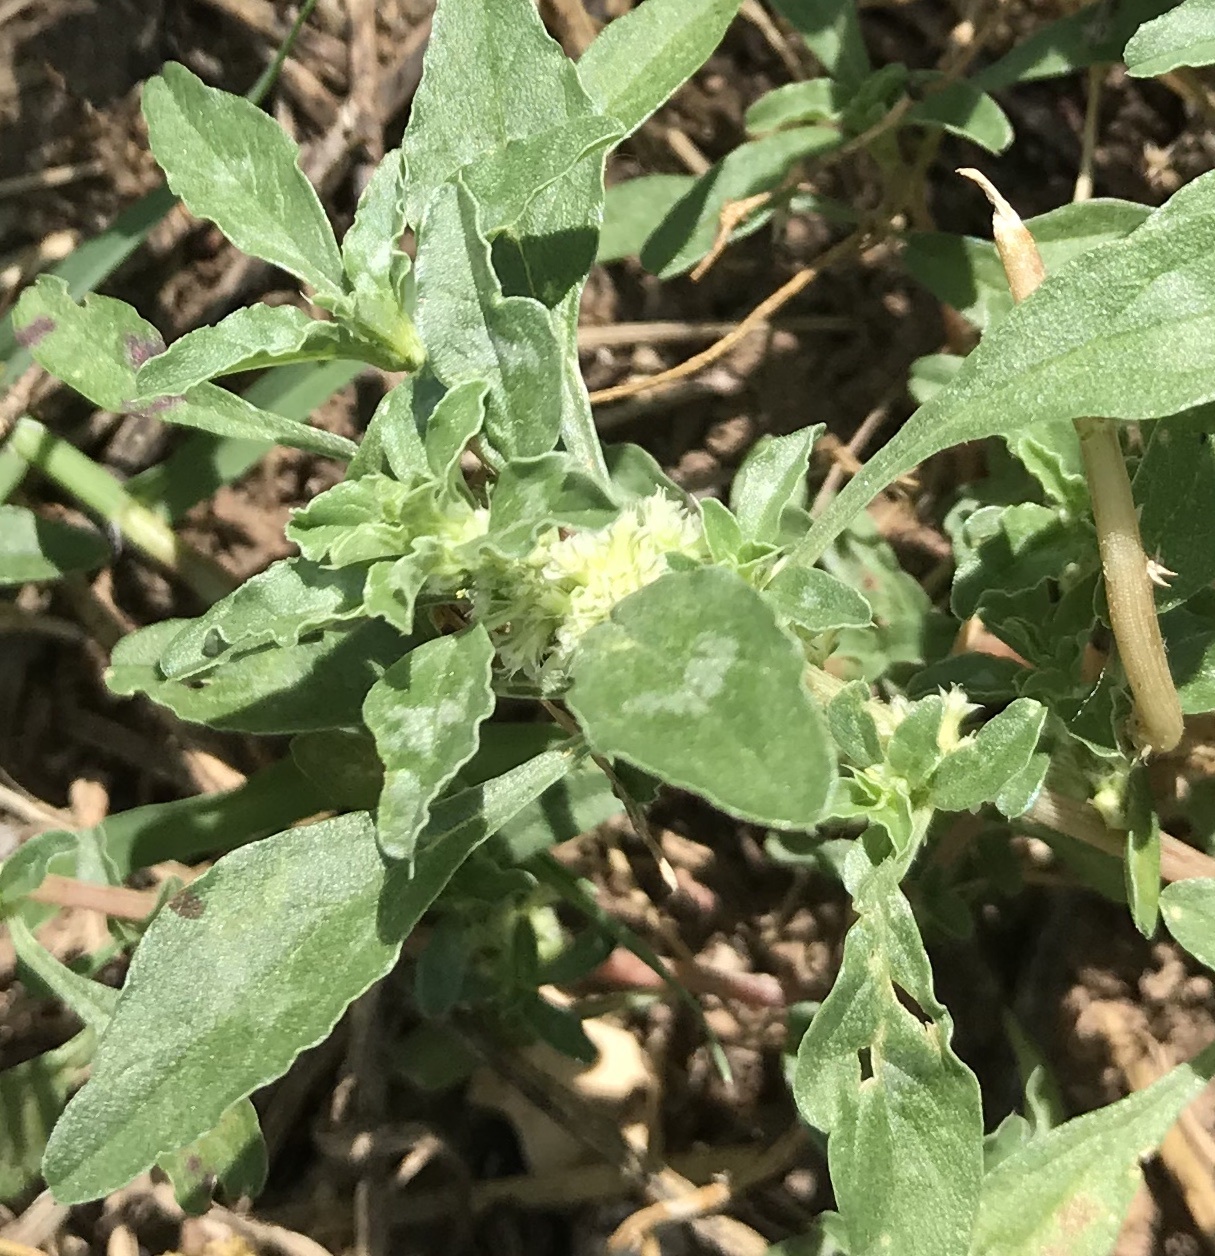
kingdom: Plantae
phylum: Tracheophyta
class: Magnoliopsida
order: Caryophyllales
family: Amaranthaceae
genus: Amaranthus
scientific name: Amaranthus polygonoides
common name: Tropical amaranth
